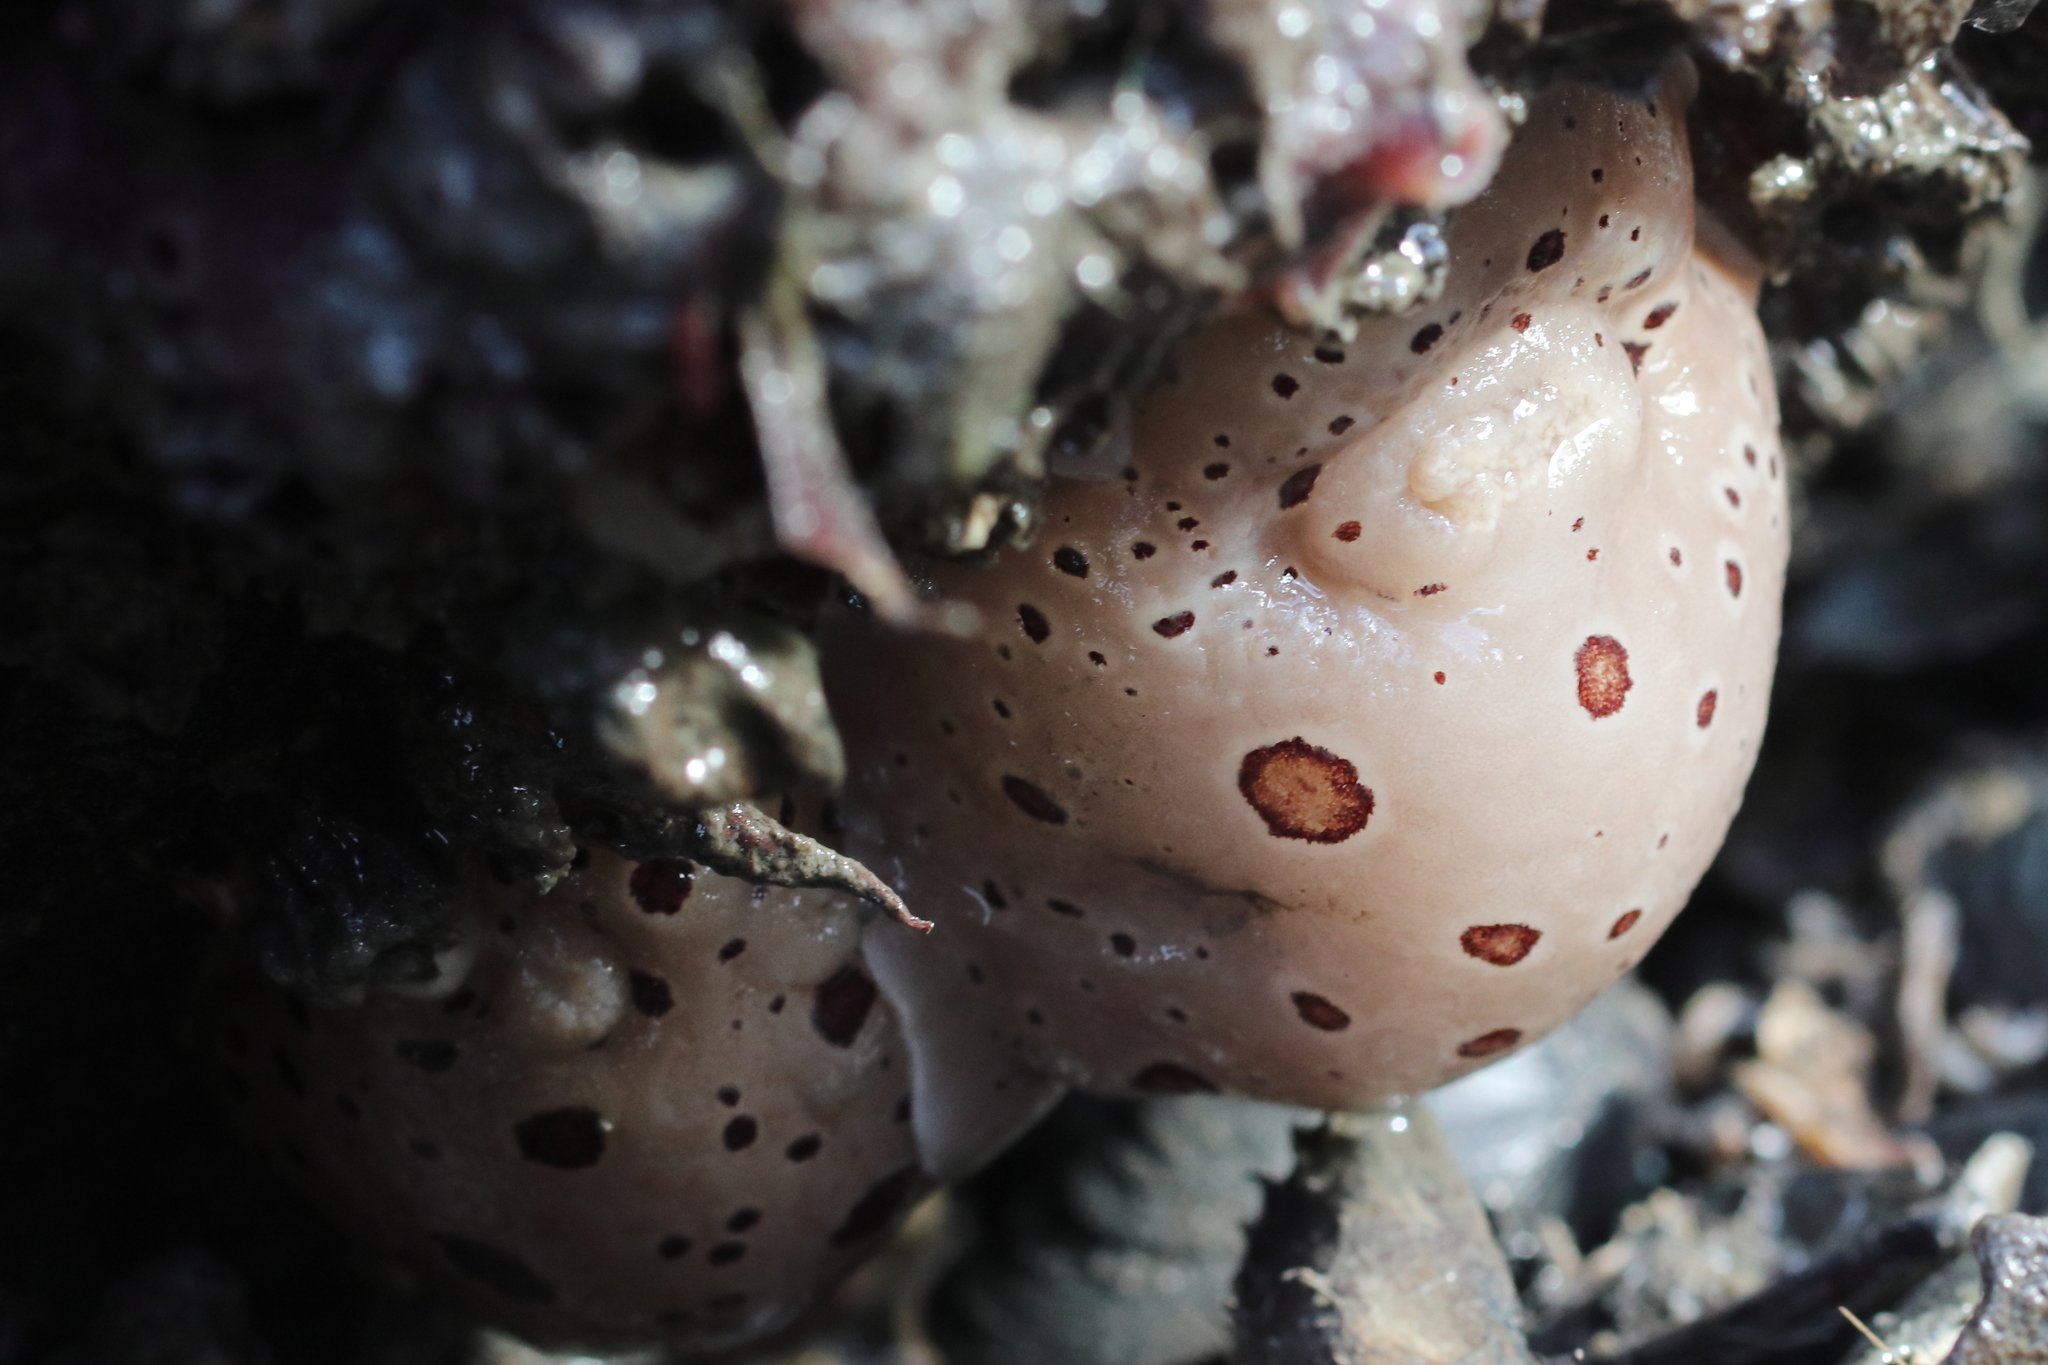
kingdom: Animalia
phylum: Mollusca
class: Gastropoda
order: Nudibranchia
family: Discodorididae
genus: Diaulula
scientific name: Diaulula odonoghuei
